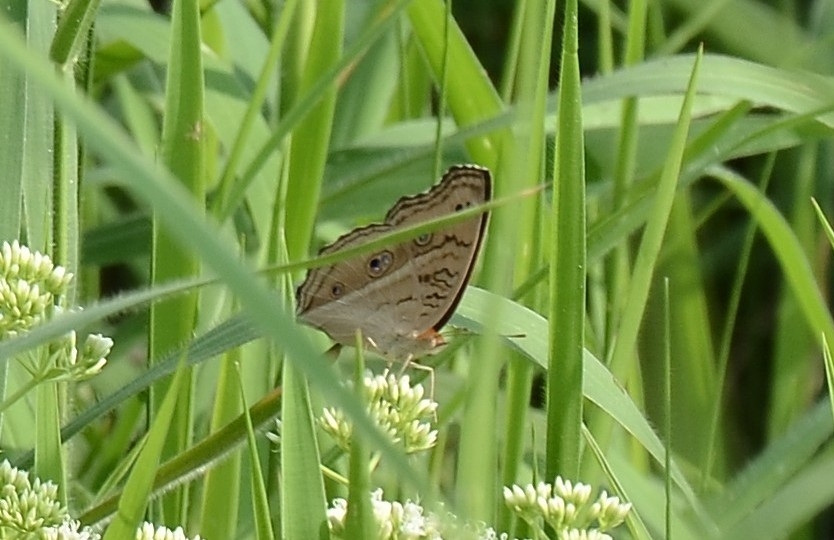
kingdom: Animalia
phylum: Arthropoda
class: Insecta
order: Lepidoptera
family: Nymphalidae
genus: Junonia
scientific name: Junonia almana
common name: Peacock pansy
